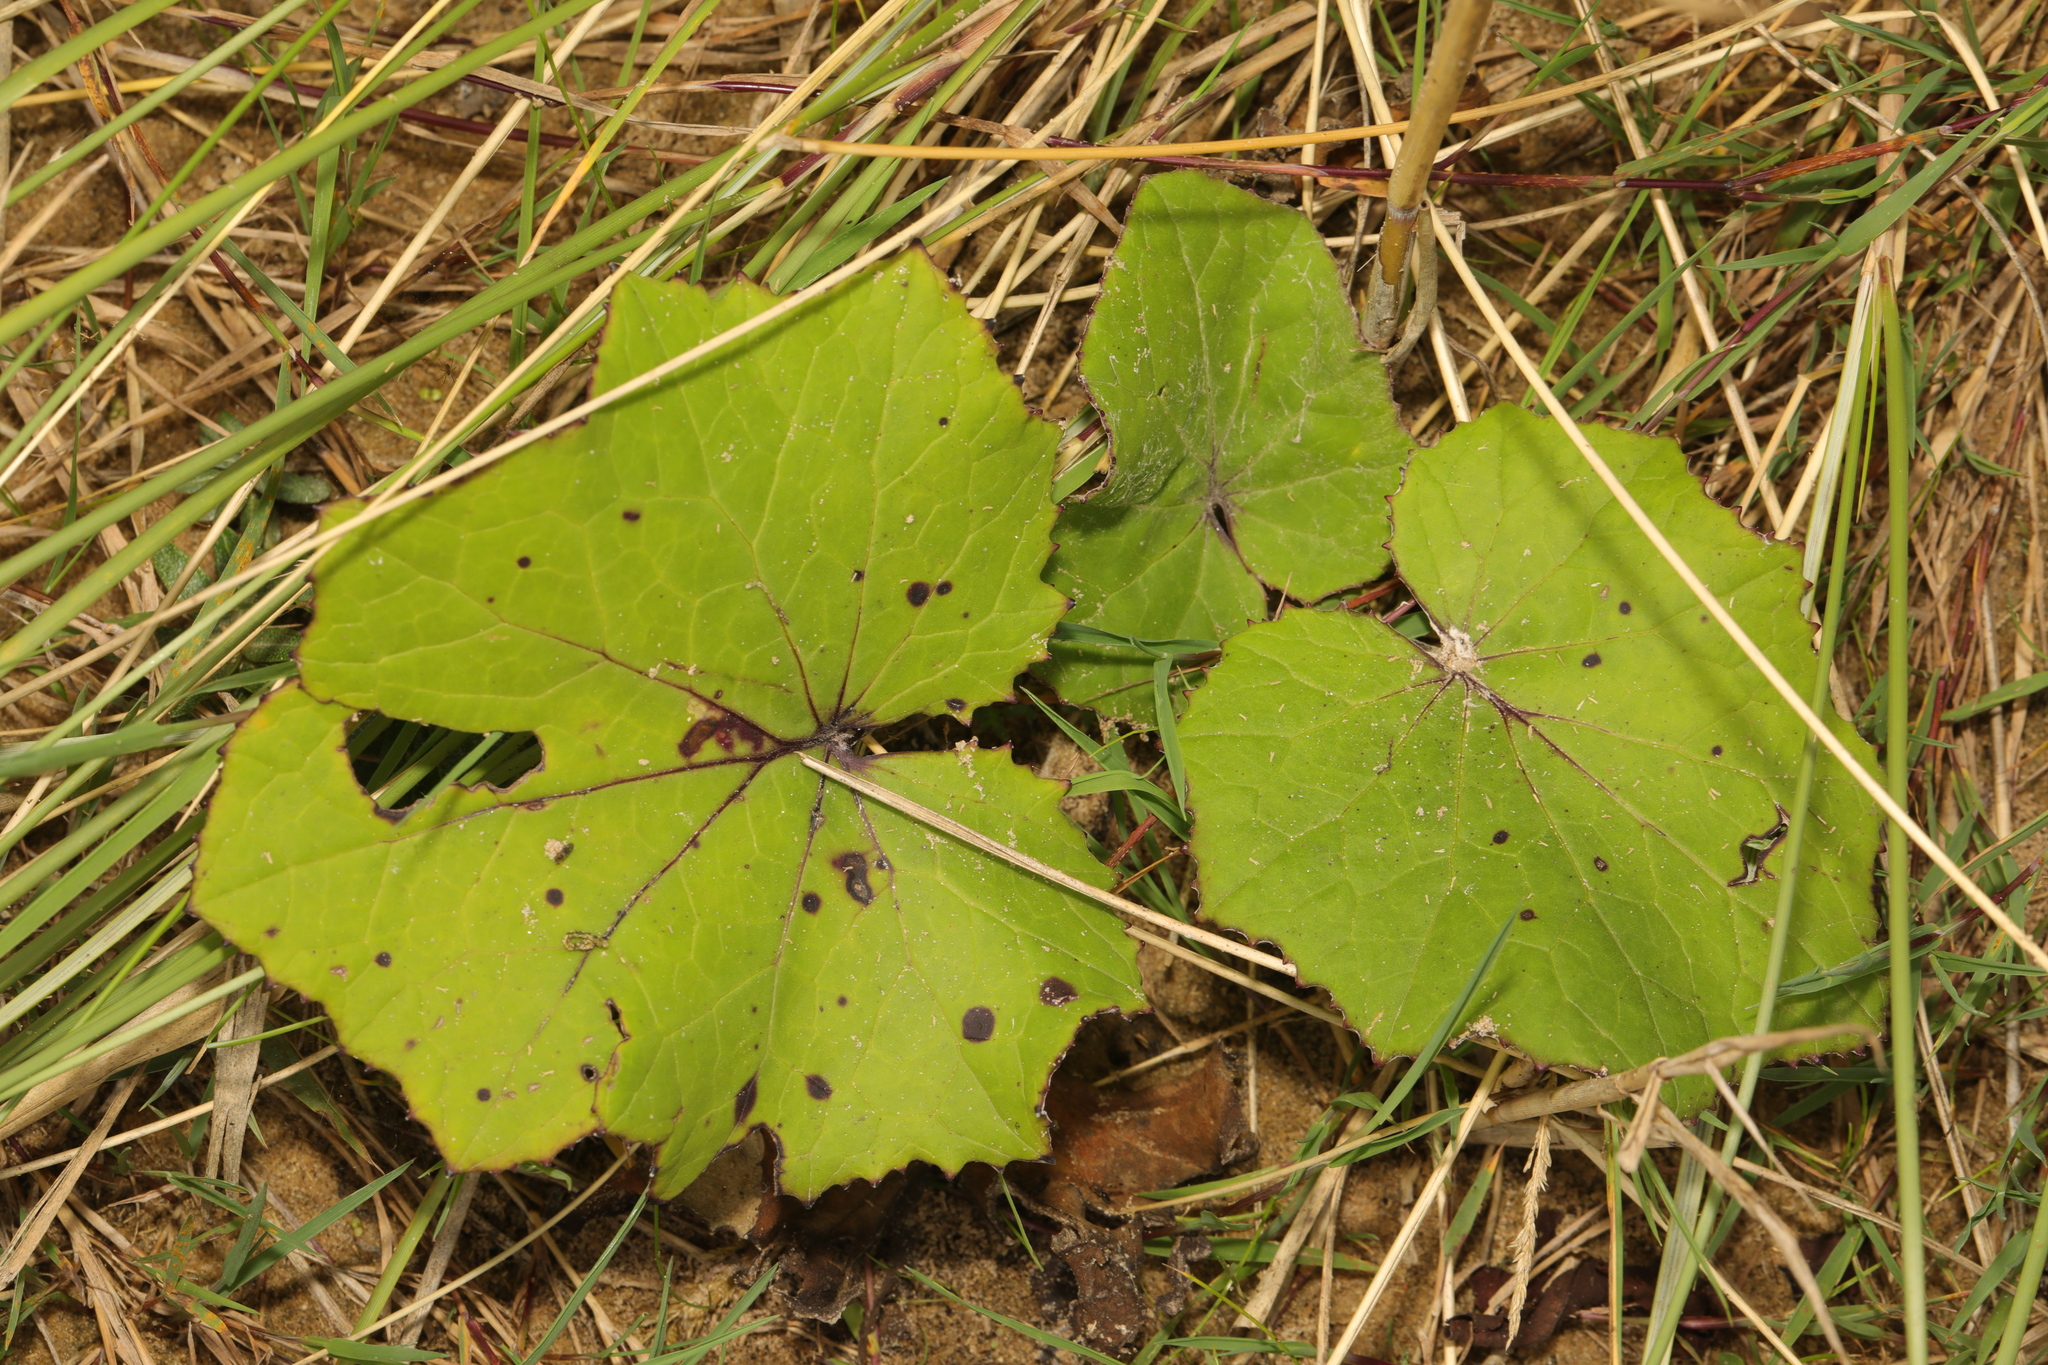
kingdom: Plantae
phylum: Tracheophyta
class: Magnoliopsida
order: Asterales
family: Asteraceae
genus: Tussilago
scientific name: Tussilago farfara
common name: Coltsfoot
